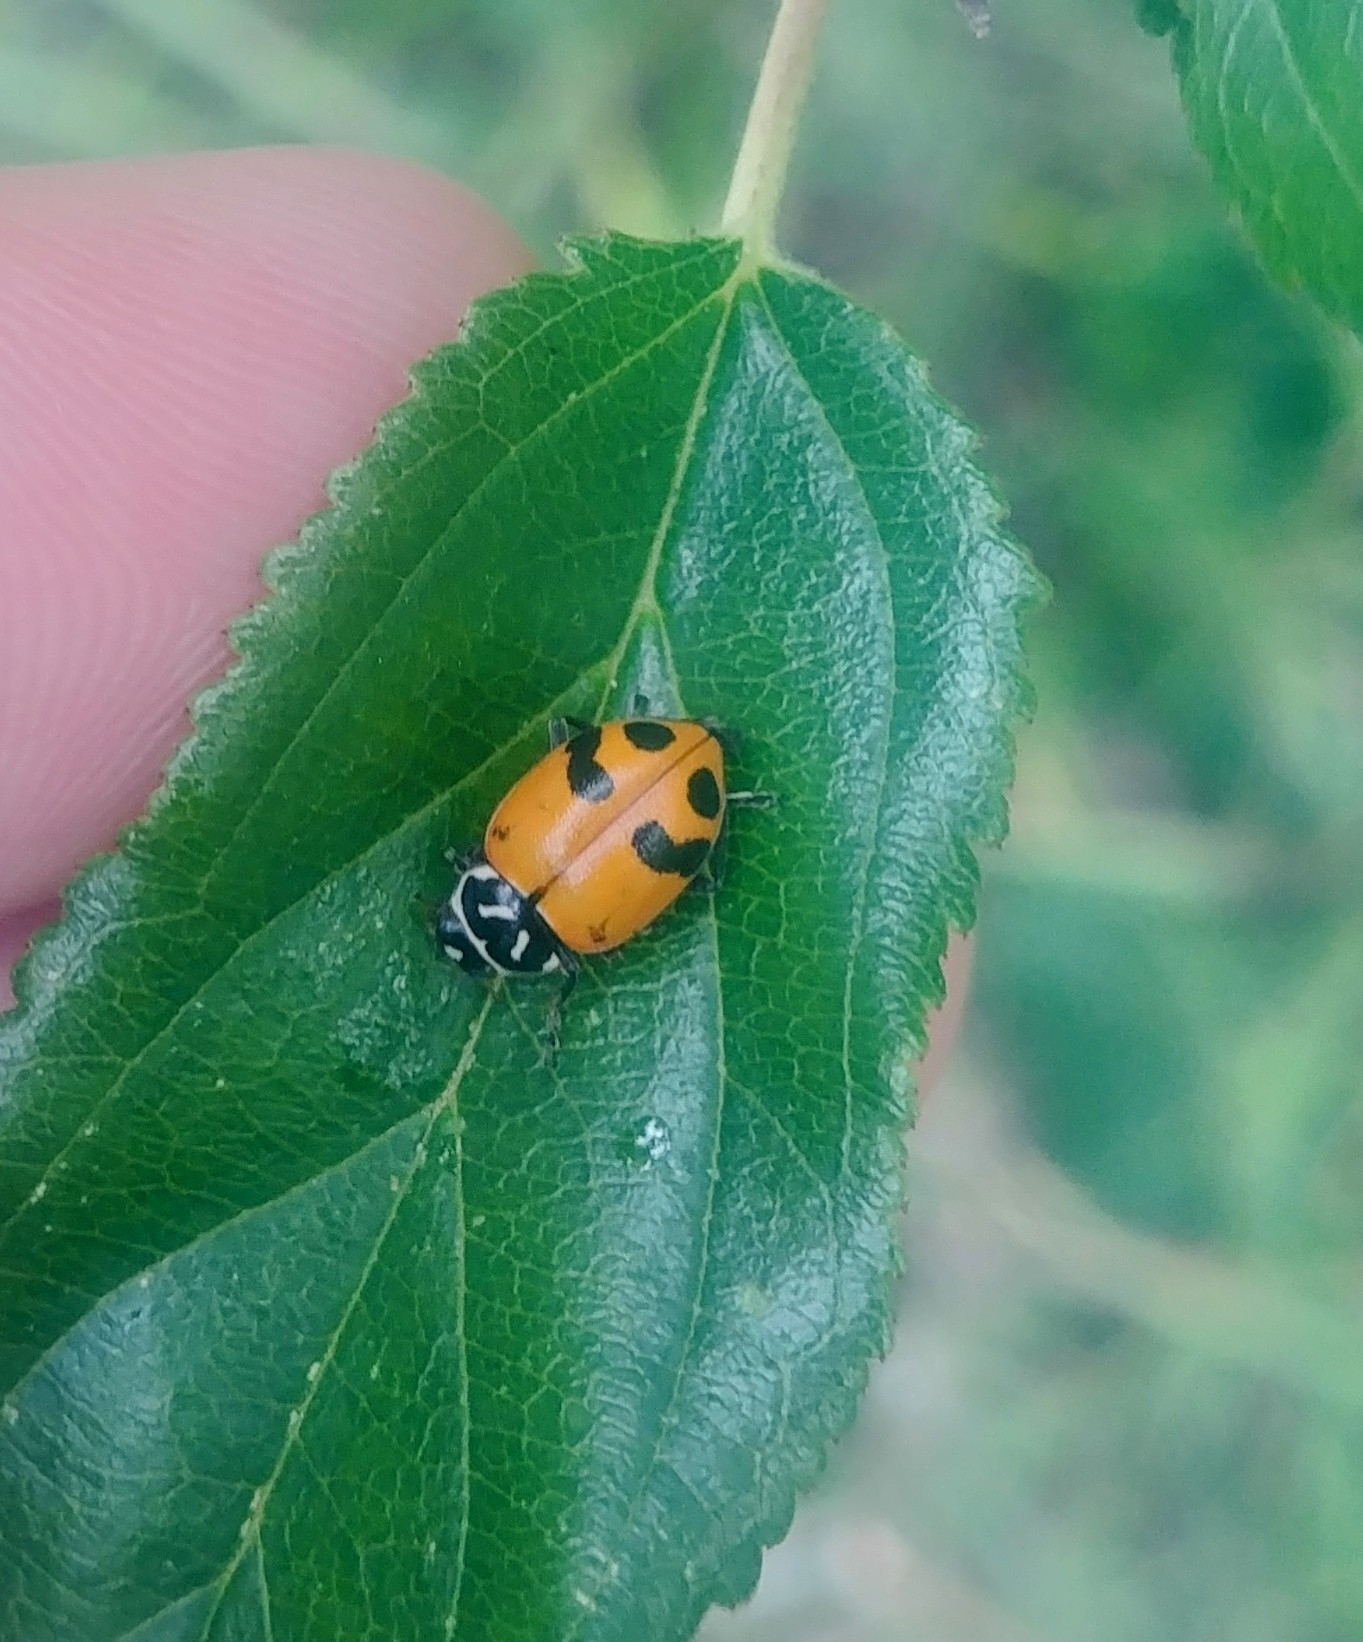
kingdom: Animalia
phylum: Arthropoda
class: Insecta
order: Coleoptera
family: Coccinellidae
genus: Hippodamia
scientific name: Hippodamia glacialis
